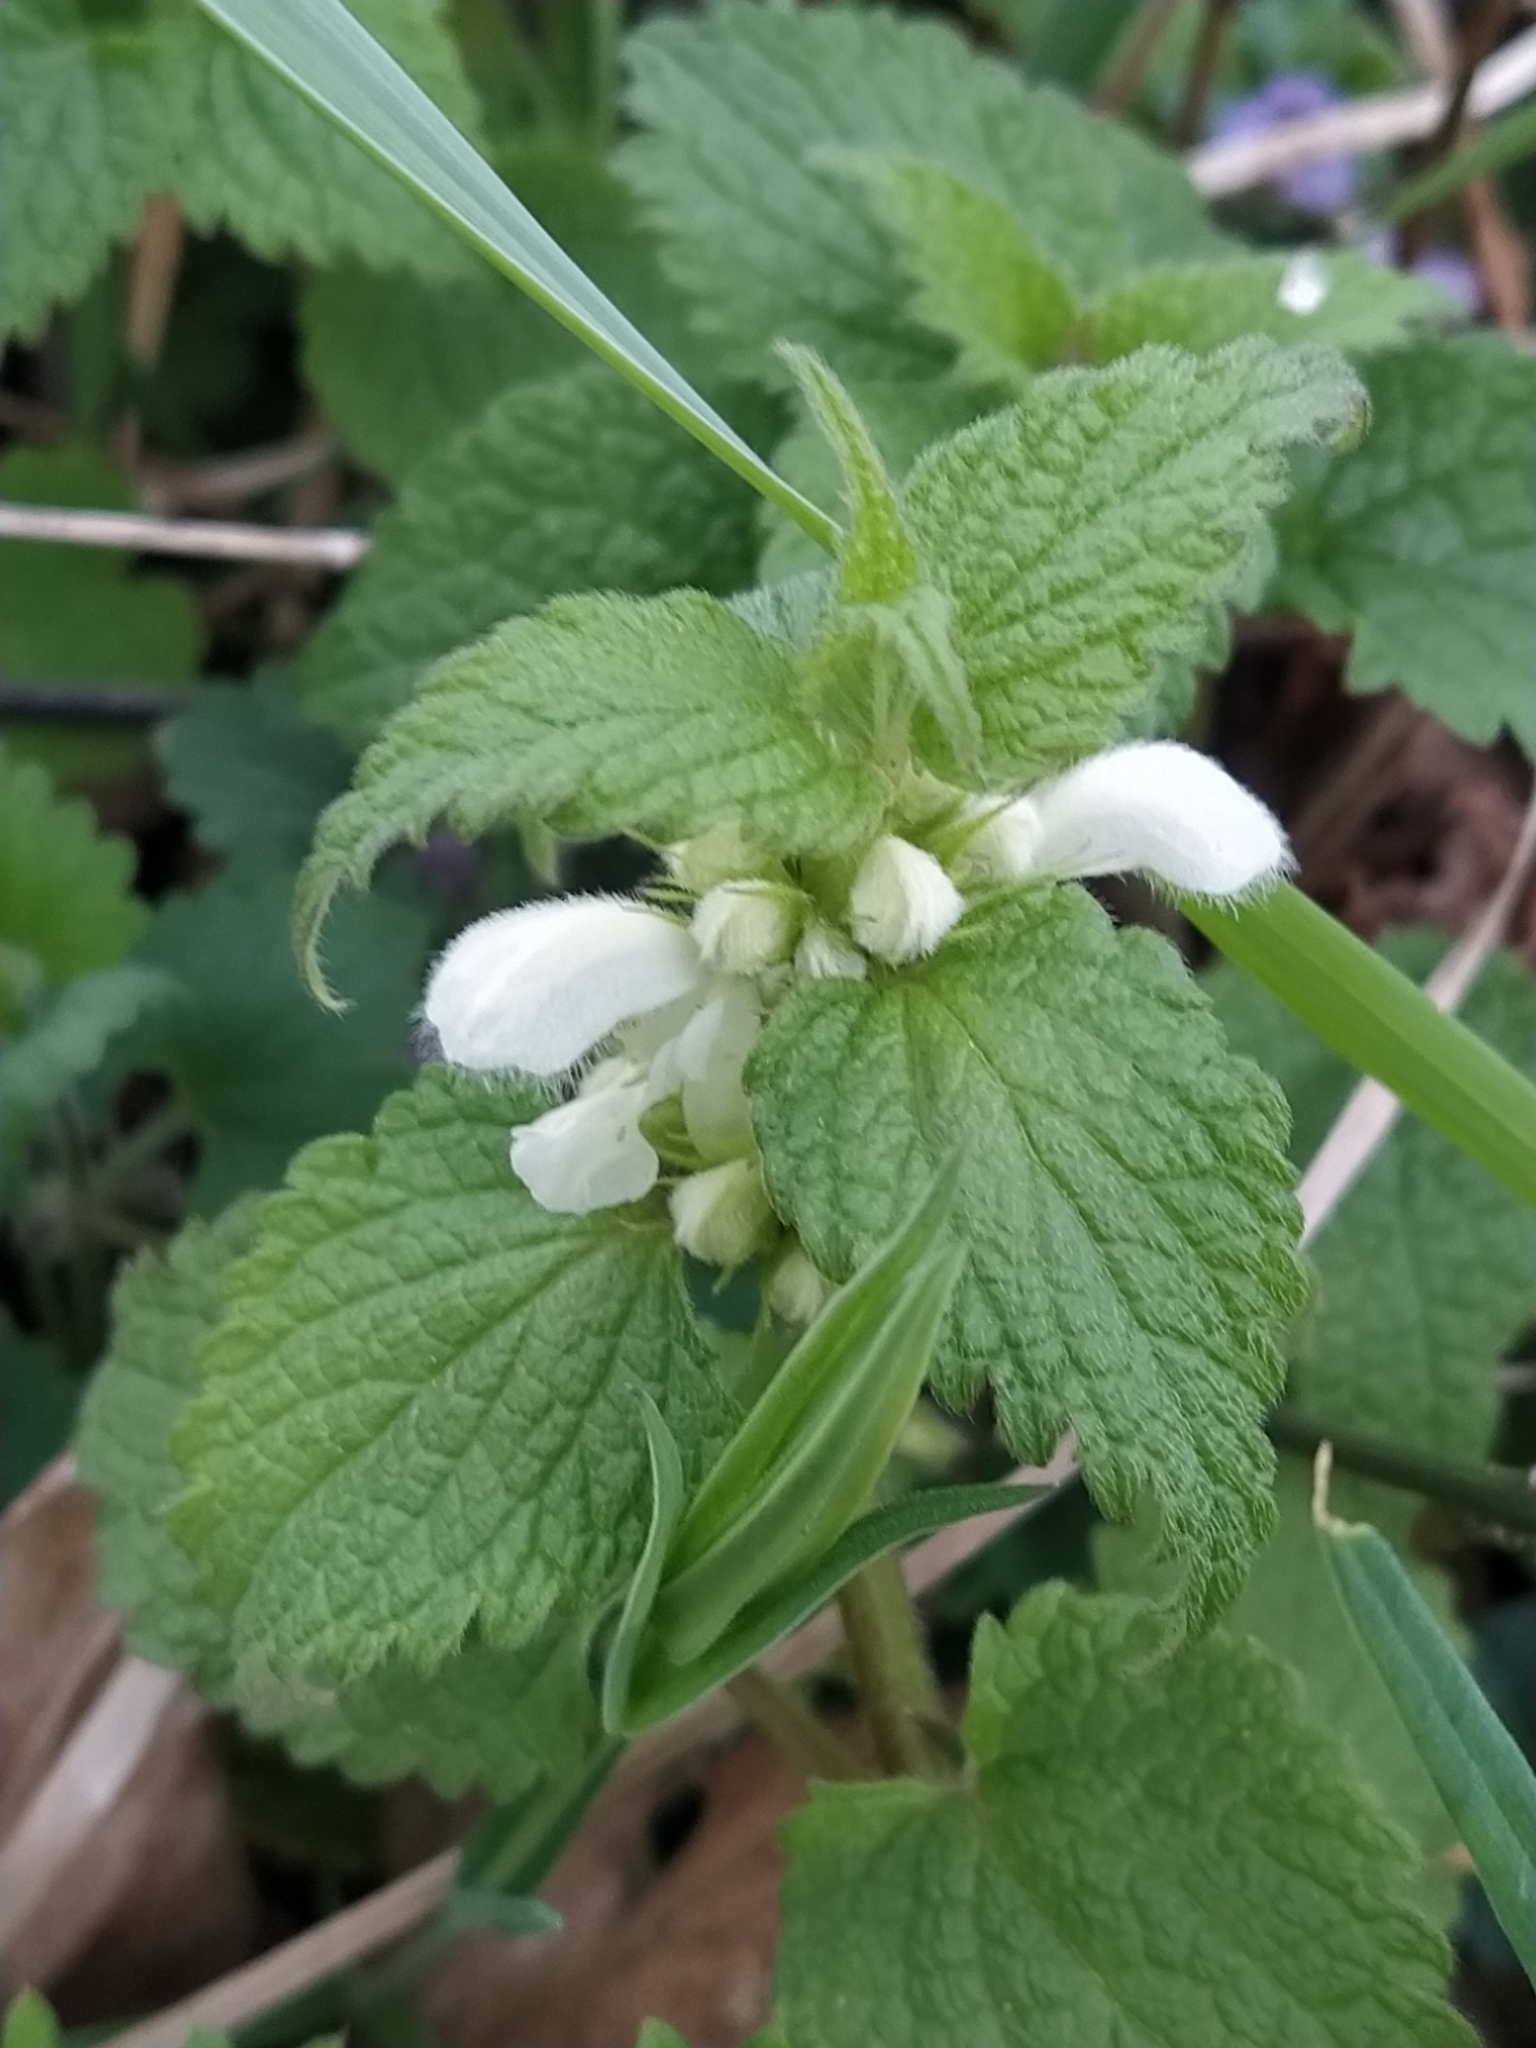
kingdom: Plantae
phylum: Tracheophyta
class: Magnoliopsida
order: Lamiales
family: Lamiaceae
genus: Lamium
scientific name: Lamium album
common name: White dead-nettle
